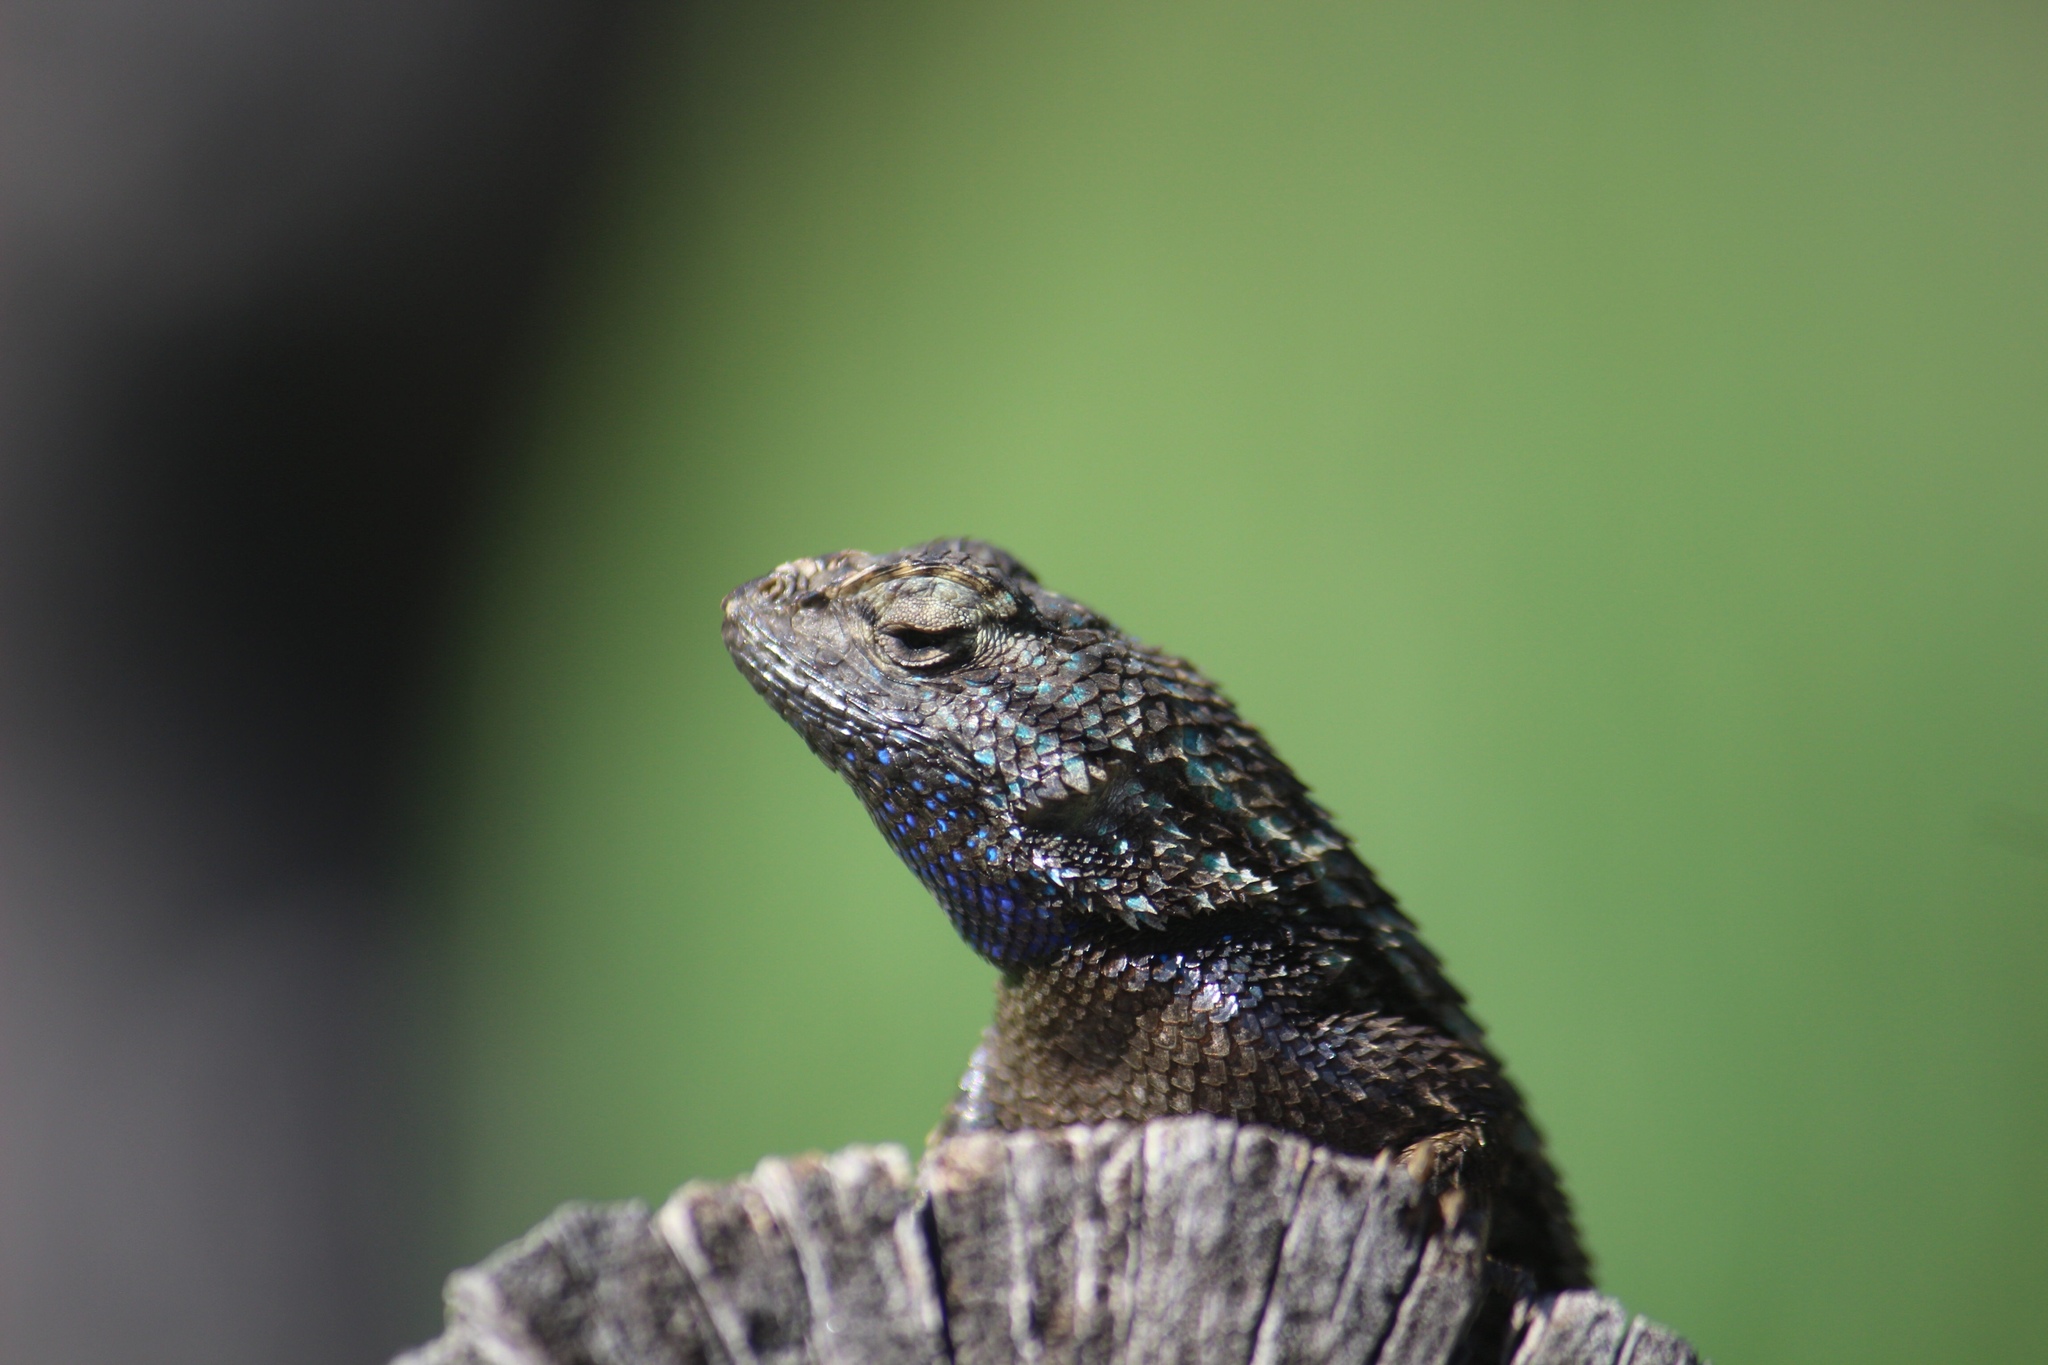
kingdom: Animalia
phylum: Chordata
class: Squamata
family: Phrynosomatidae
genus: Sceloporus
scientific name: Sceloporus occidentalis
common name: Western fence lizard
